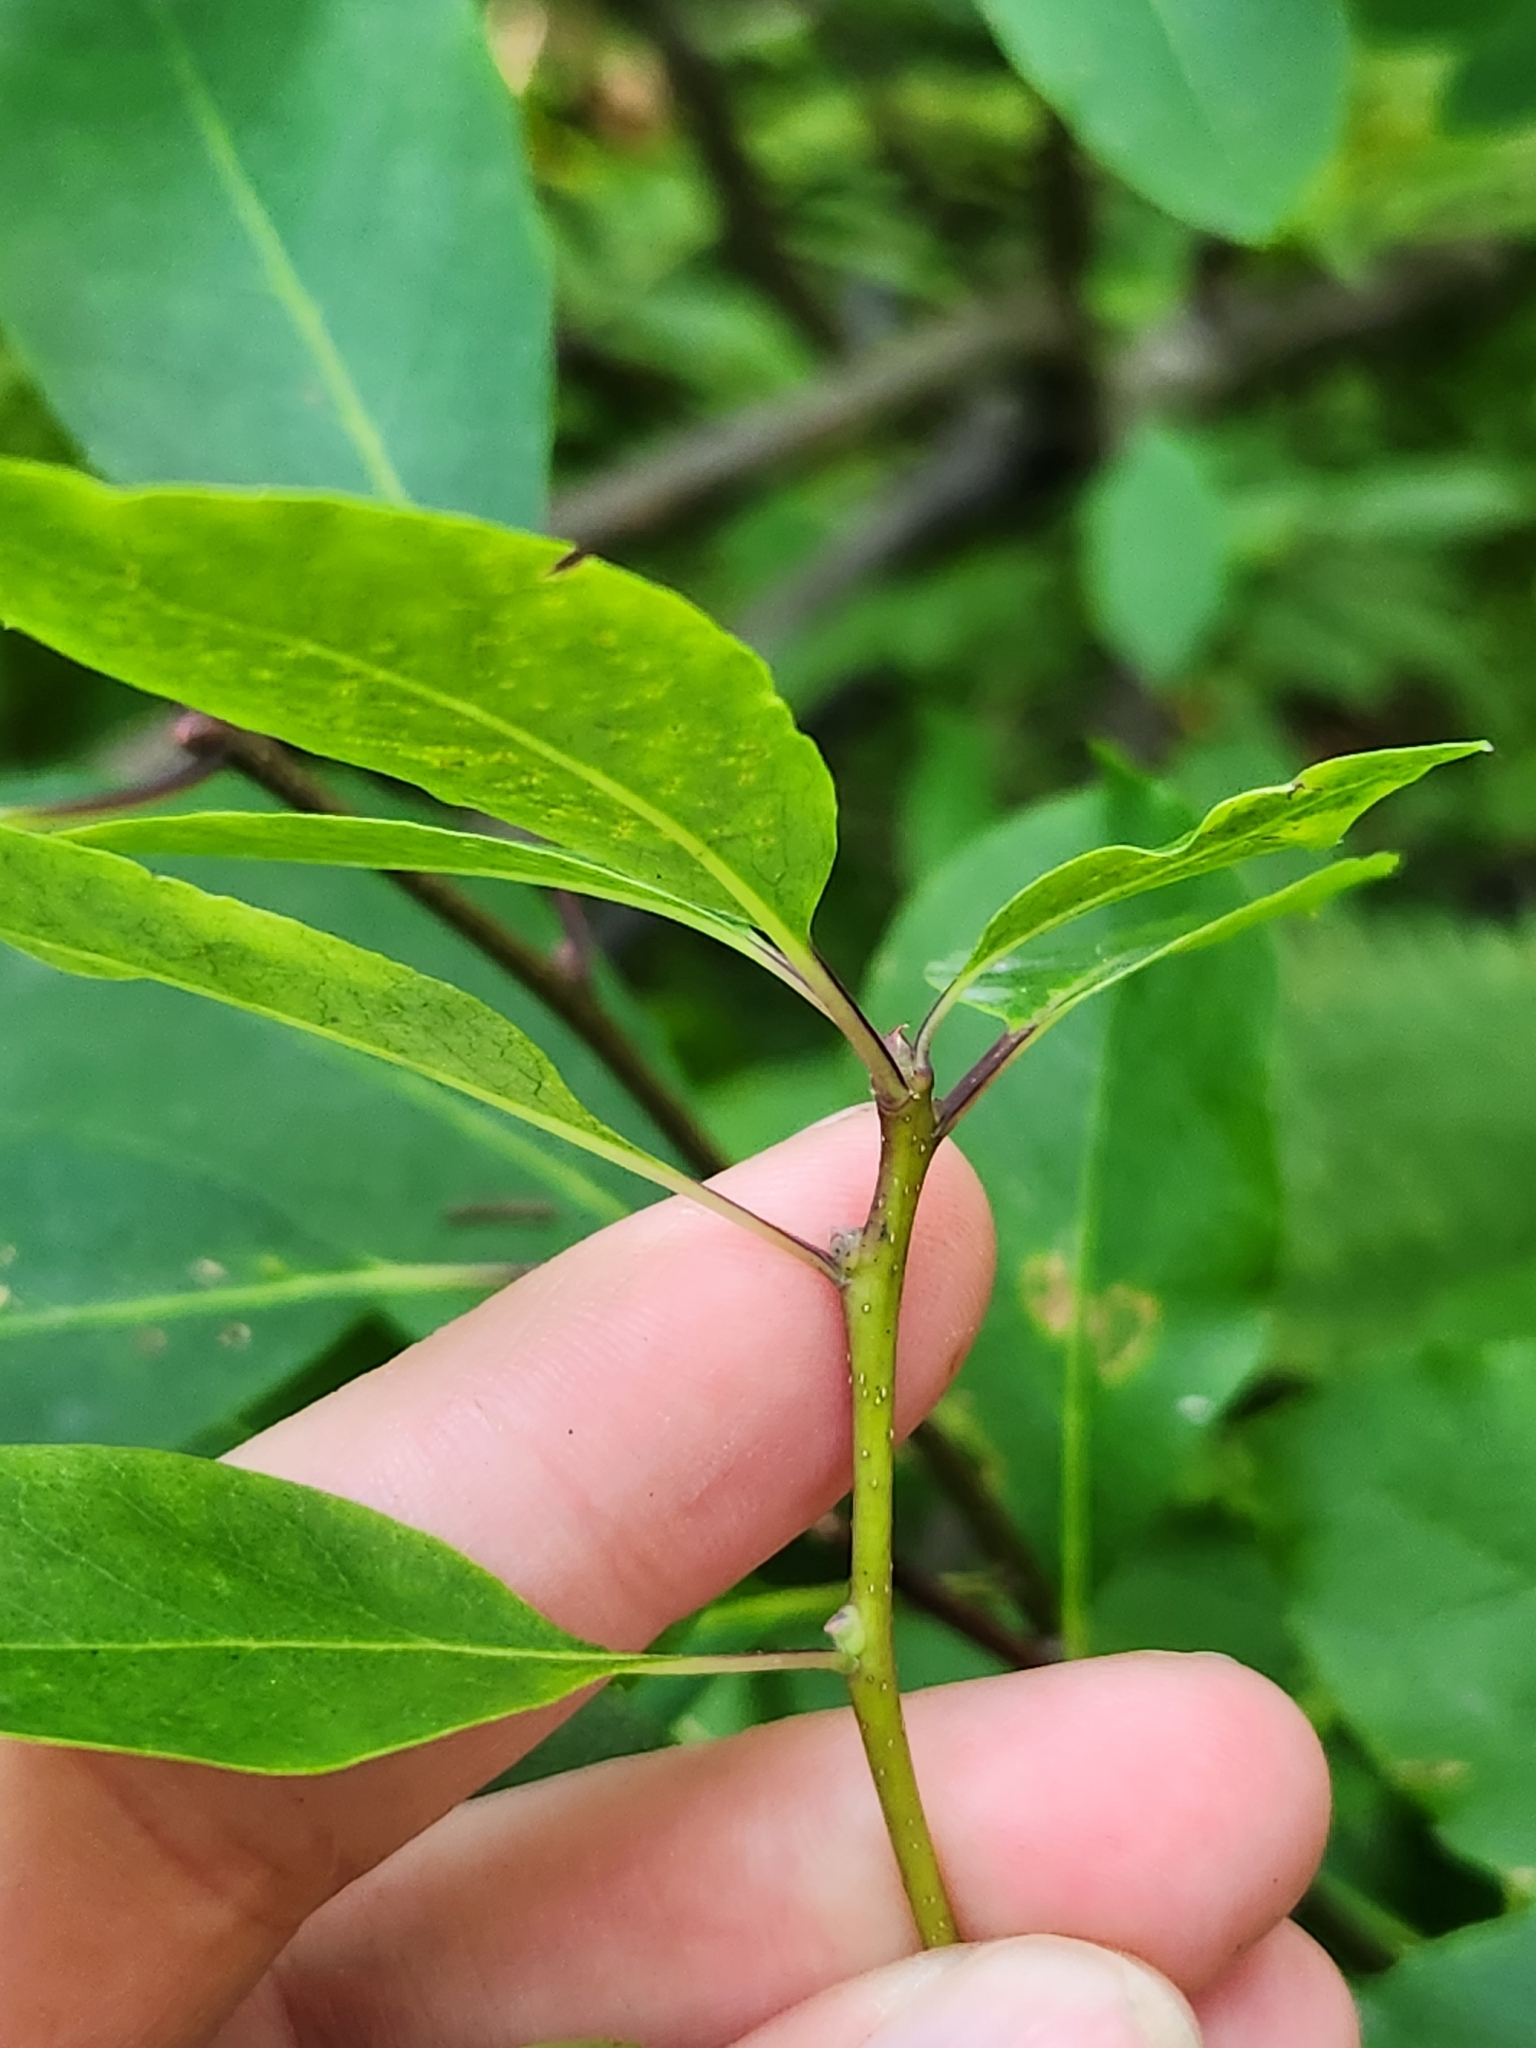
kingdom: Plantae
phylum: Tracheophyta
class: Magnoliopsida
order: Aquifoliales
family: Aquifoliaceae
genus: Ilex
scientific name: Ilex mucronata
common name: Catberry
